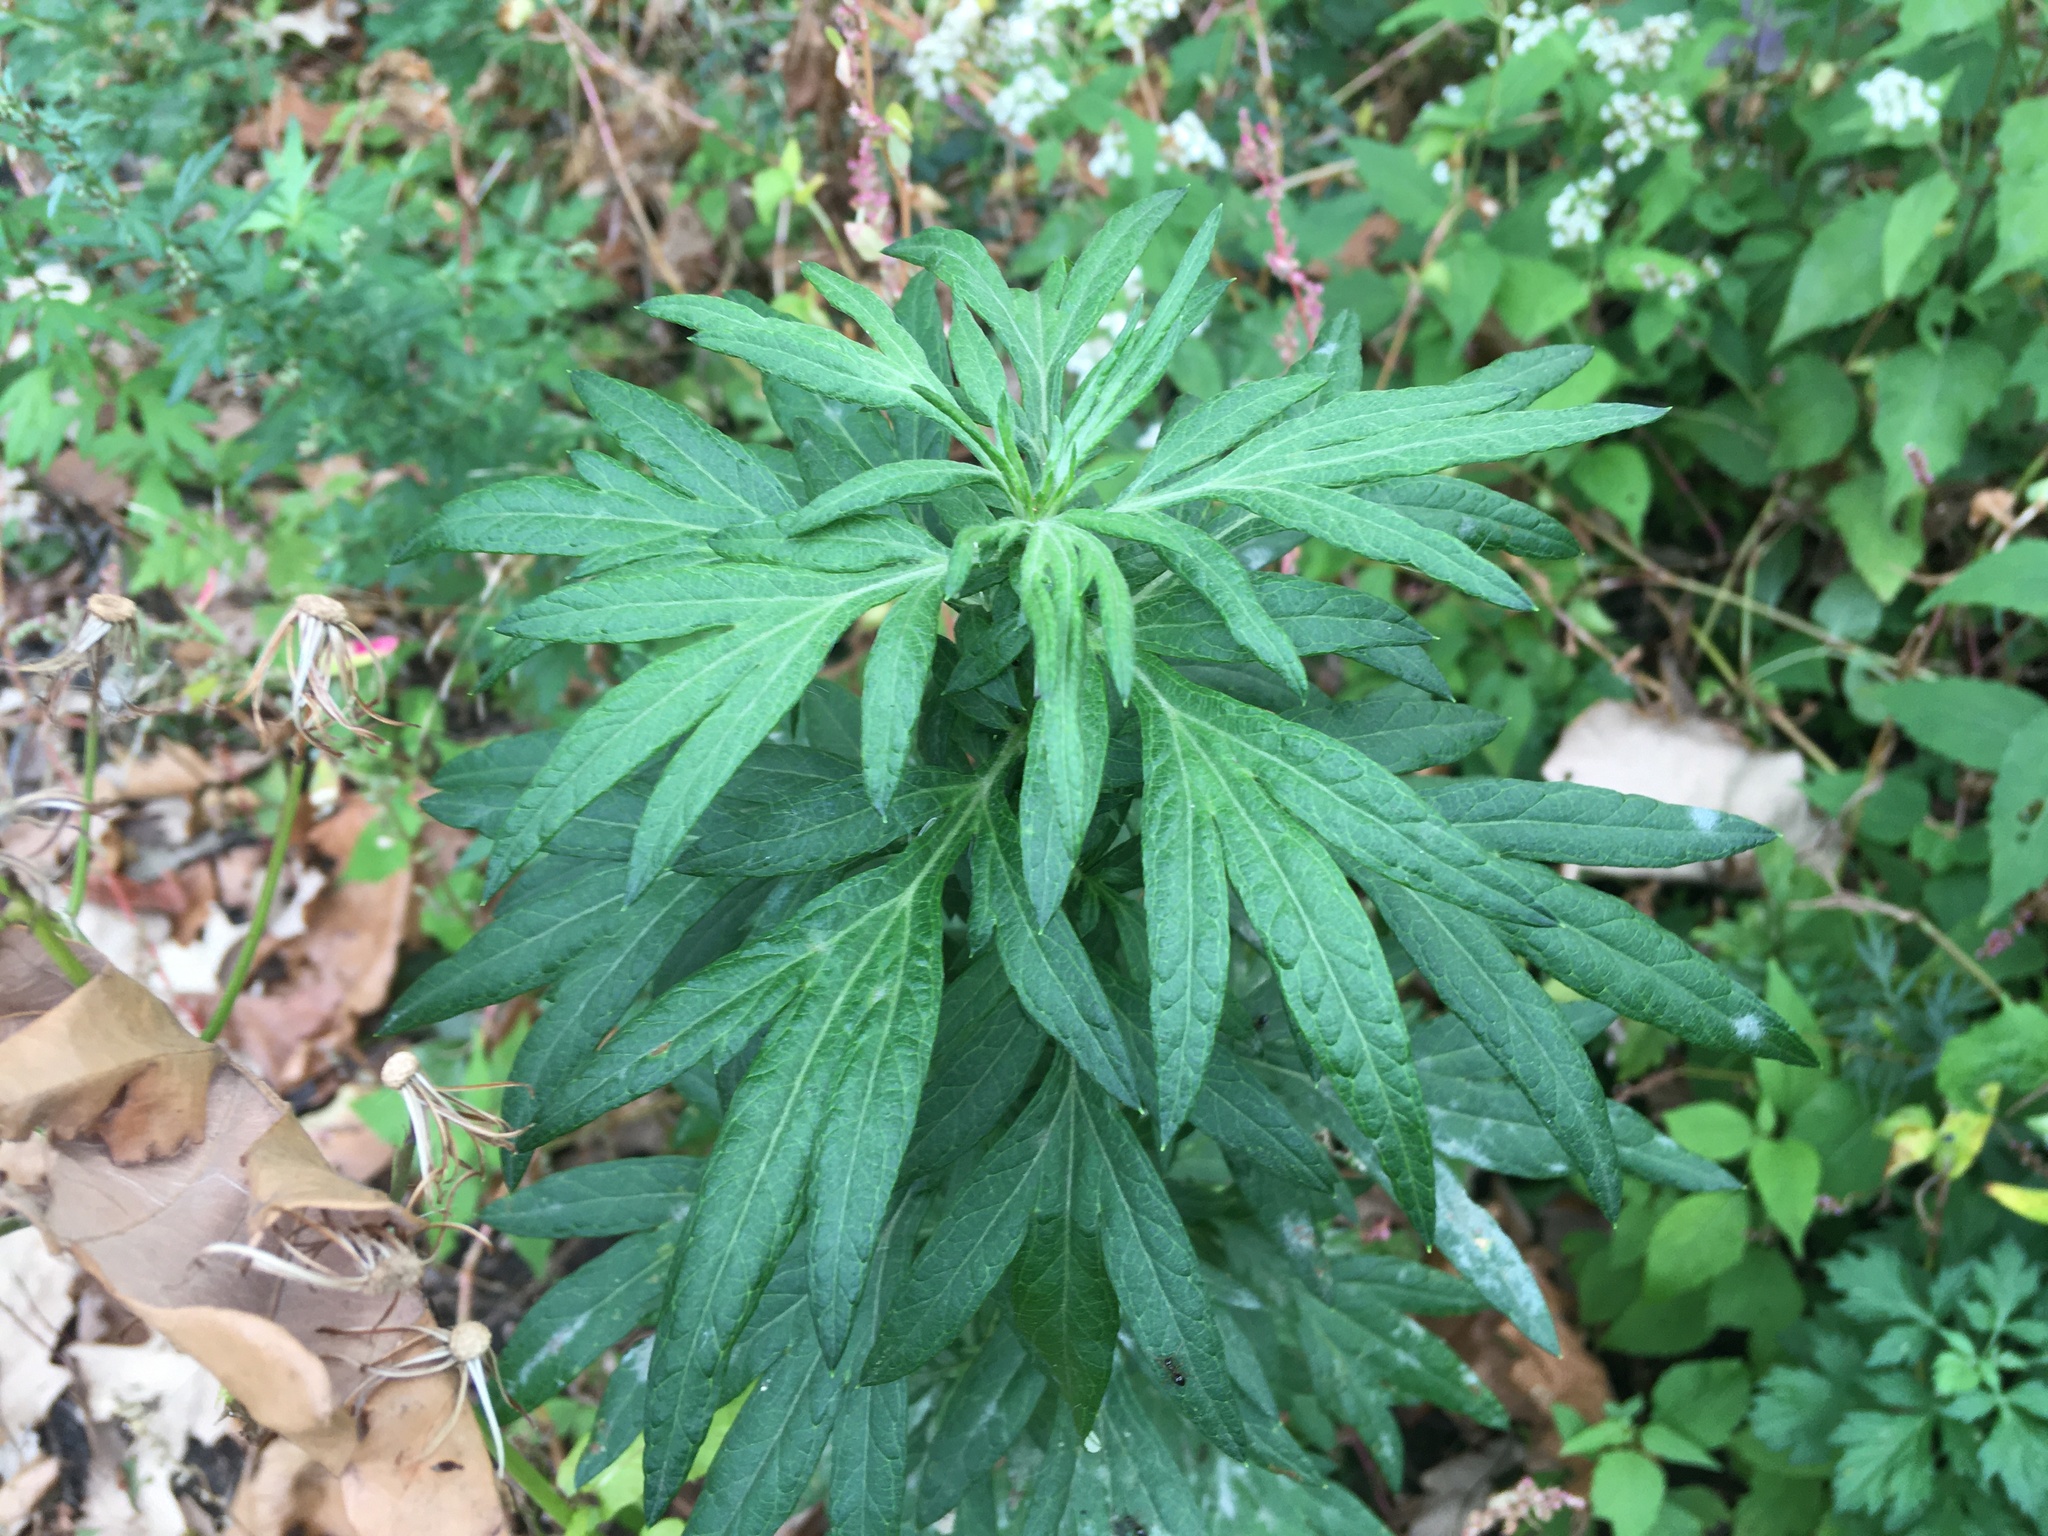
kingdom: Plantae
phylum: Tracheophyta
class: Magnoliopsida
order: Asterales
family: Asteraceae
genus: Artemisia
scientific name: Artemisia vulgaris
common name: Mugwort
